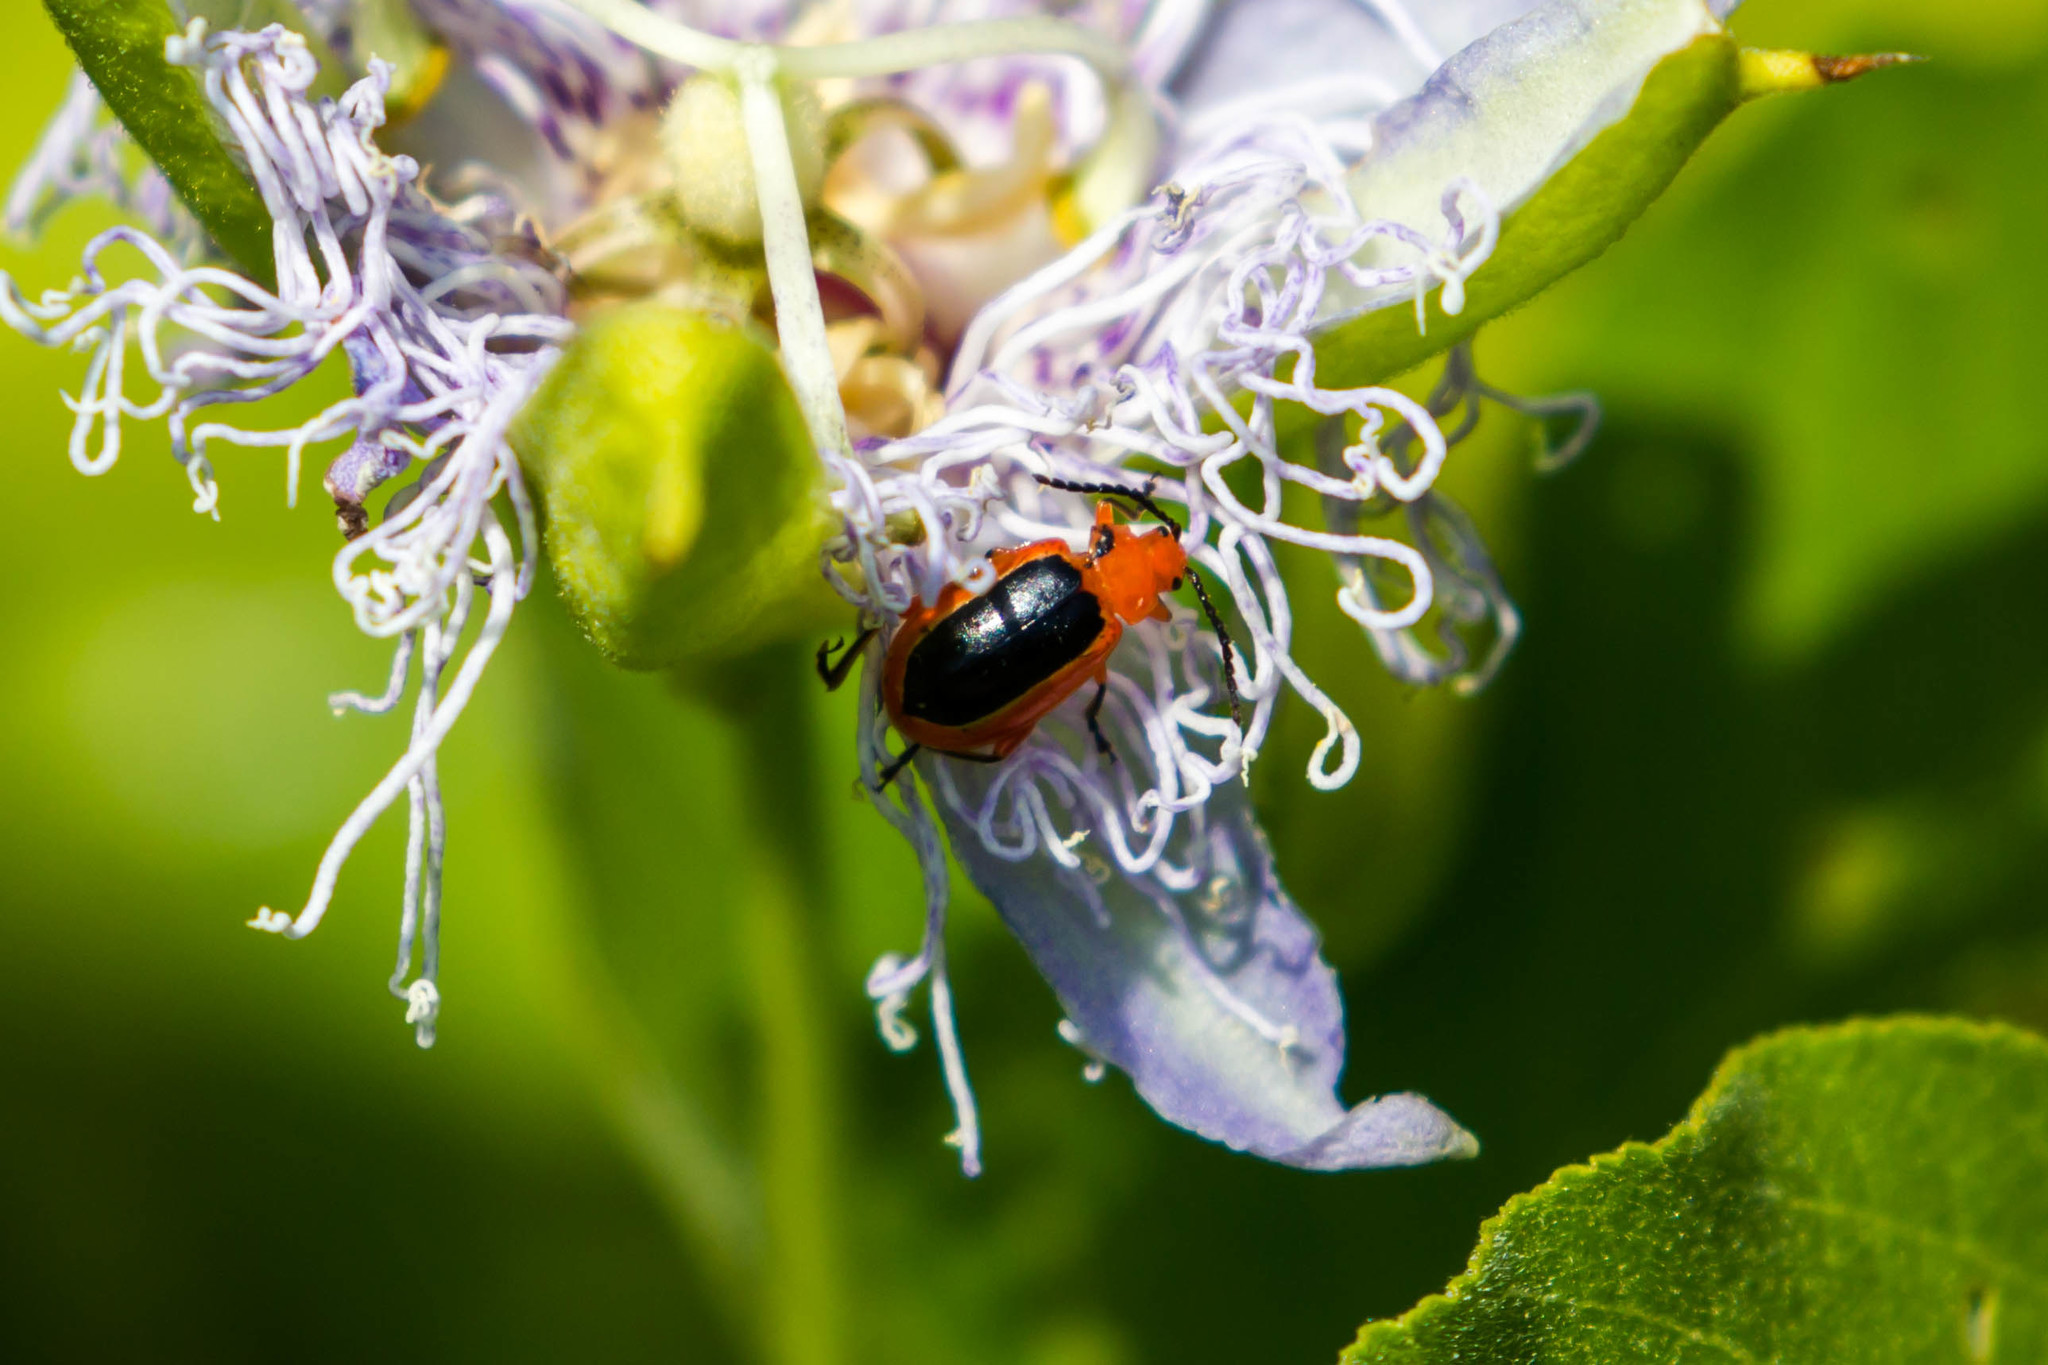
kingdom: Animalia
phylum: Arthropoda
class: Insecta
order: Coleoptera
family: Chrysomelidae
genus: Disonycha
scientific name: Disonycha discoidea
